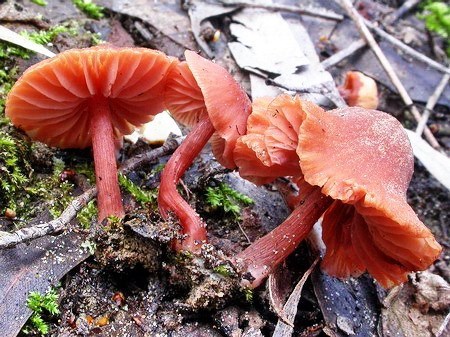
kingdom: Fungi
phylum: Basidiomycota
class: Agaricomycetes
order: Agaricales
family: Hydnangiaceae
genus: Laccaria
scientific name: Laccaria lateritia
